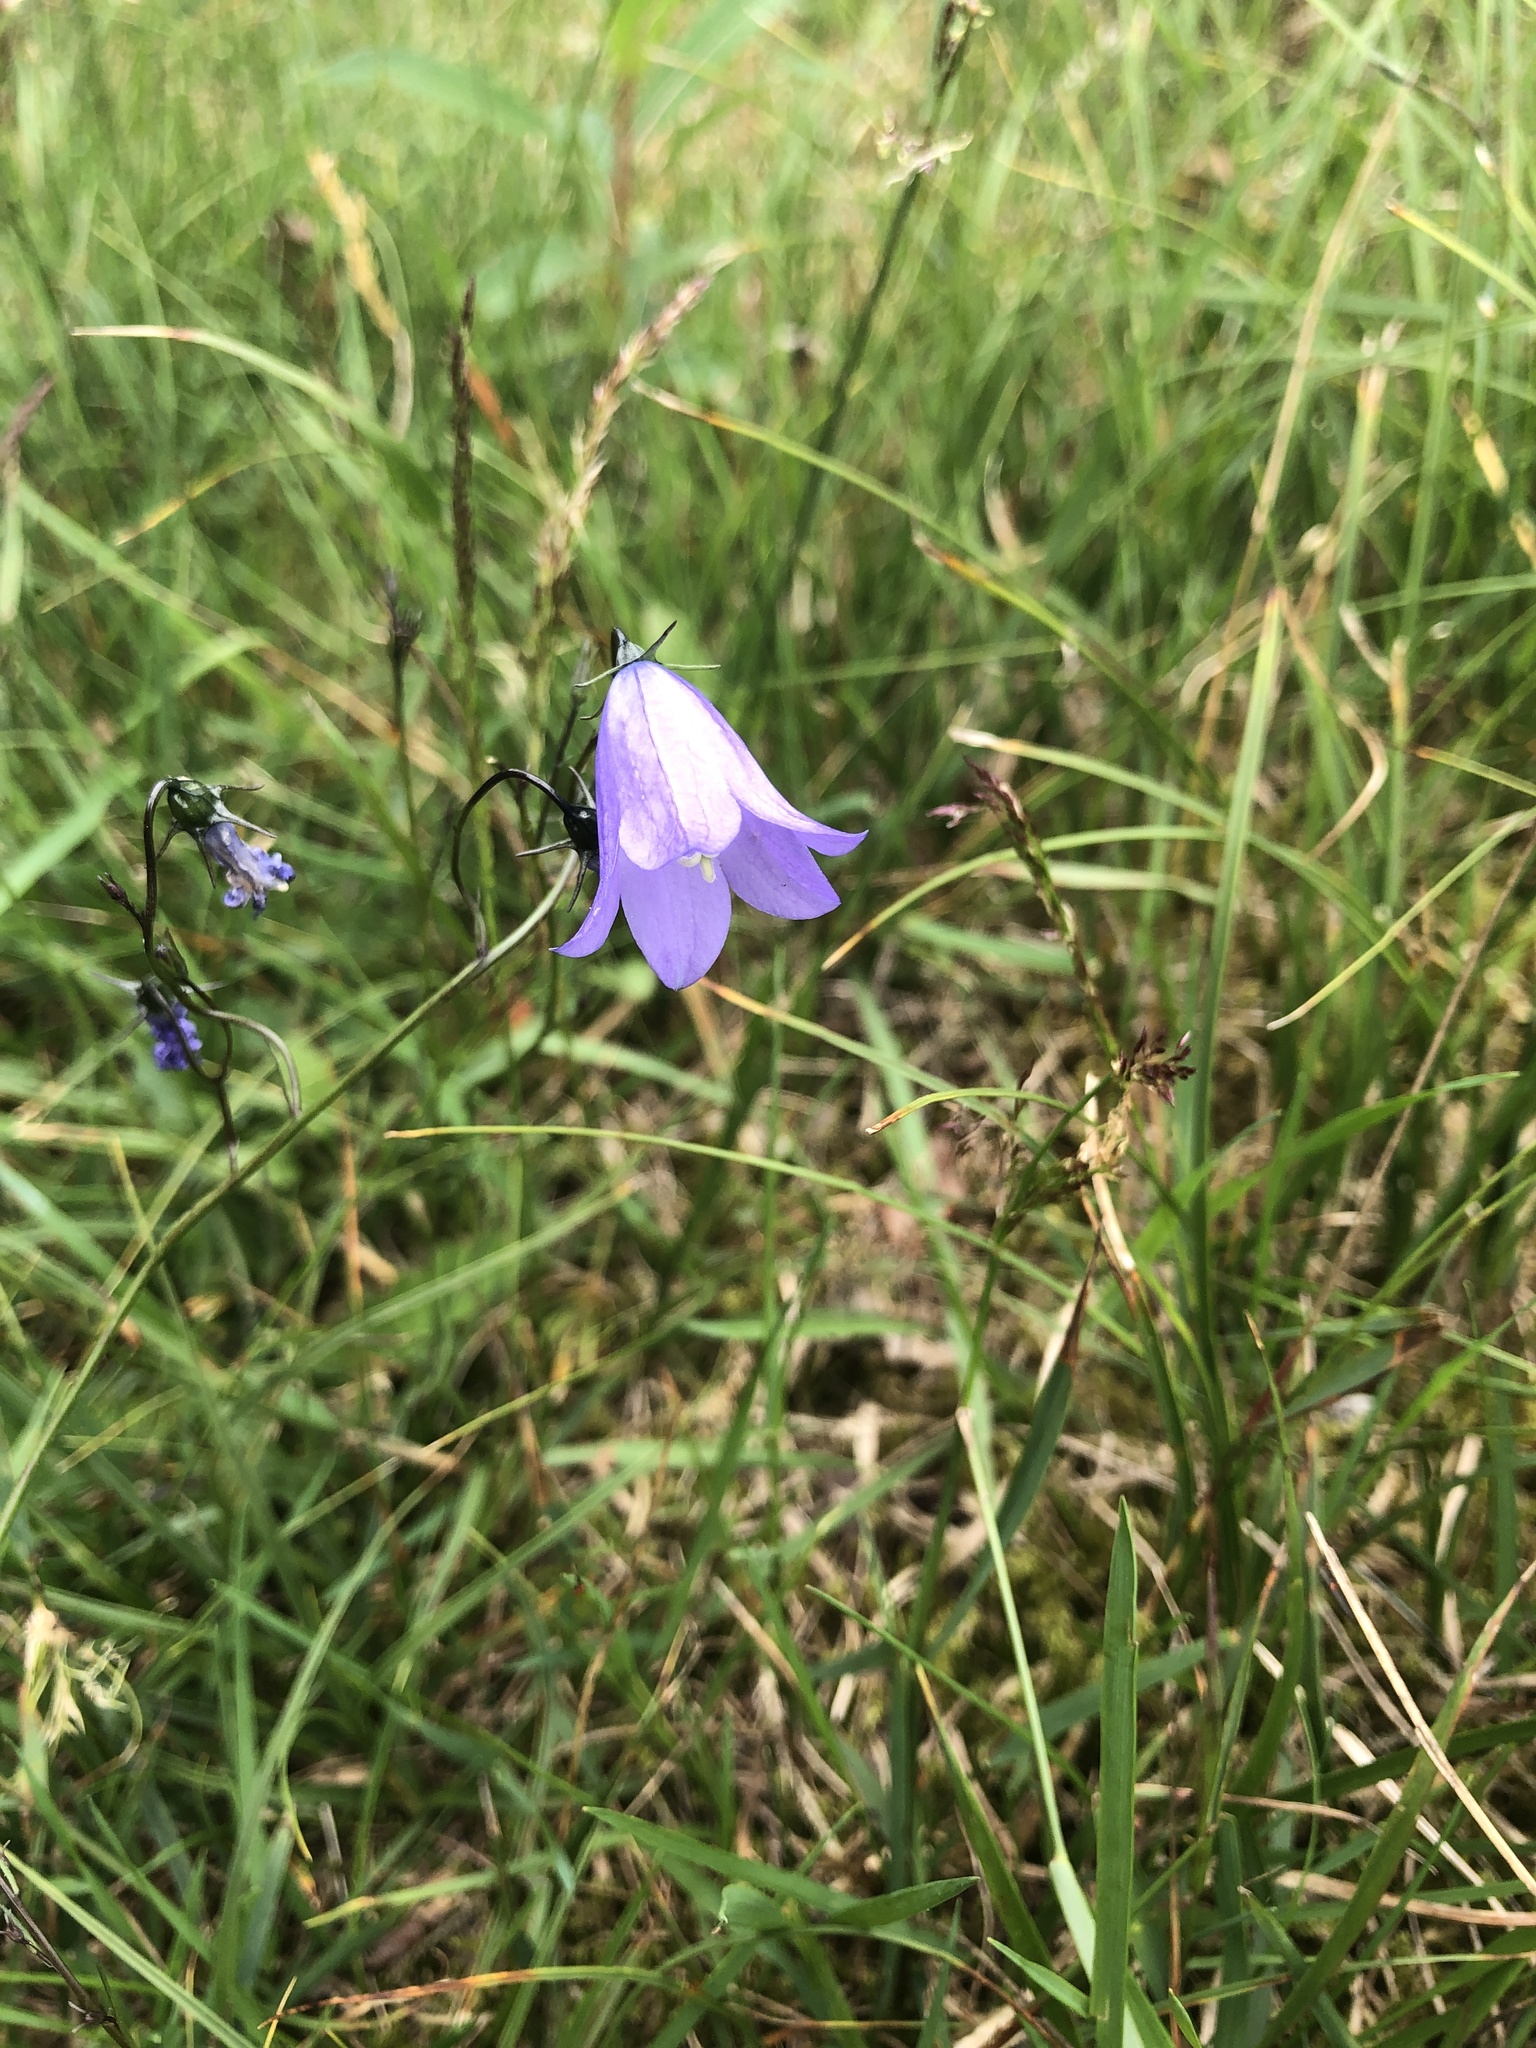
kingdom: Plantae
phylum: Tracheophyta
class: Magnoliopsida
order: Asterales
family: Campanulaceae
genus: Campanula
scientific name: Campanula rotundifolia
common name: Harebell
